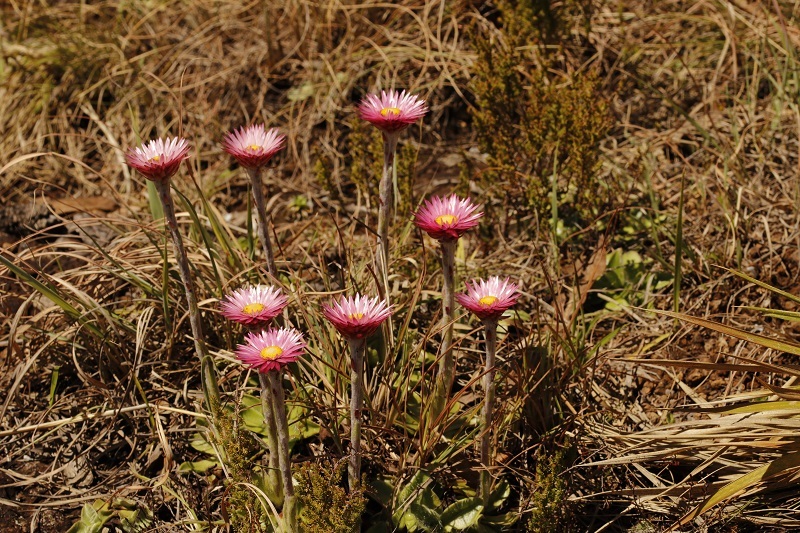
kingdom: Plantae
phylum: Tracheophyta
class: Magnoliopsida
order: Asterales
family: Asteraceae
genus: Helichrysum
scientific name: Helichrysum ecklonis
